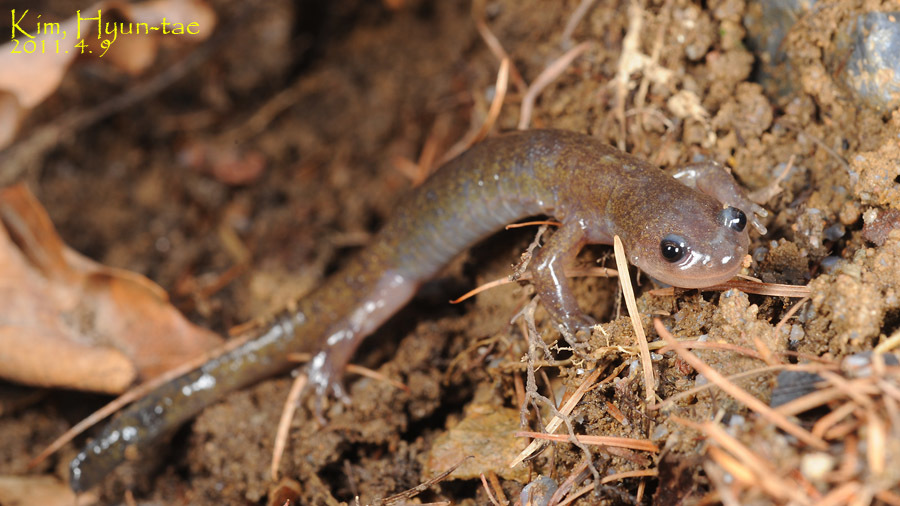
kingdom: Animalia
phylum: Chordata
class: Amphibia
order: Caudata
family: Hynobiidae
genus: Hynobius
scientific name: Hynobius leechii
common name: Gensan salamander
